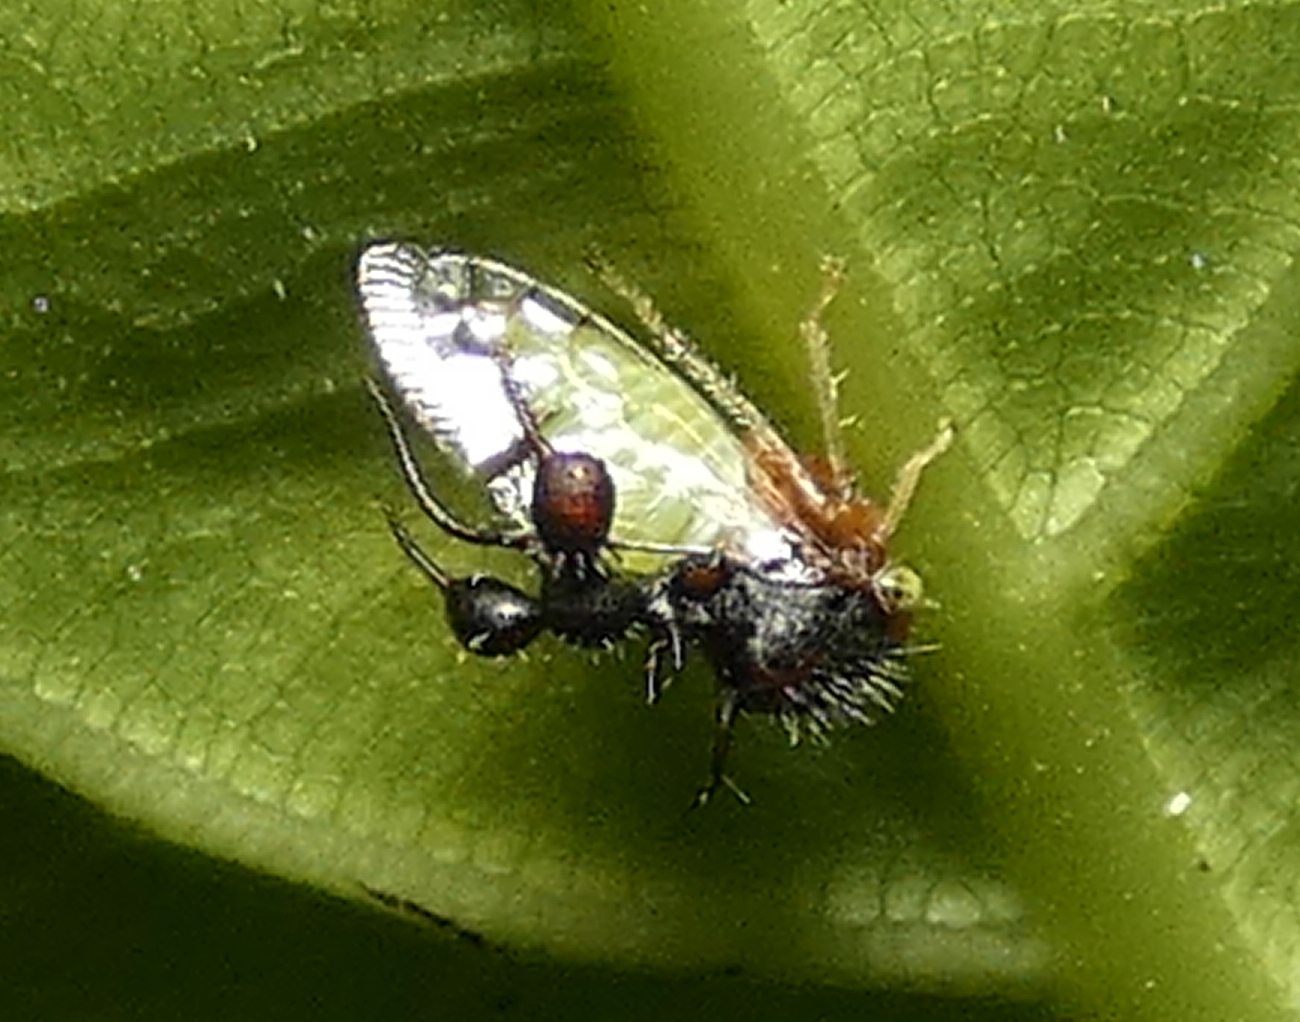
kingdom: Animalia
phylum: Arthropoda
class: Insecta
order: Hemiptera
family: Membracidae
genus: Cyphonia
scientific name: Cyphonia clavata
